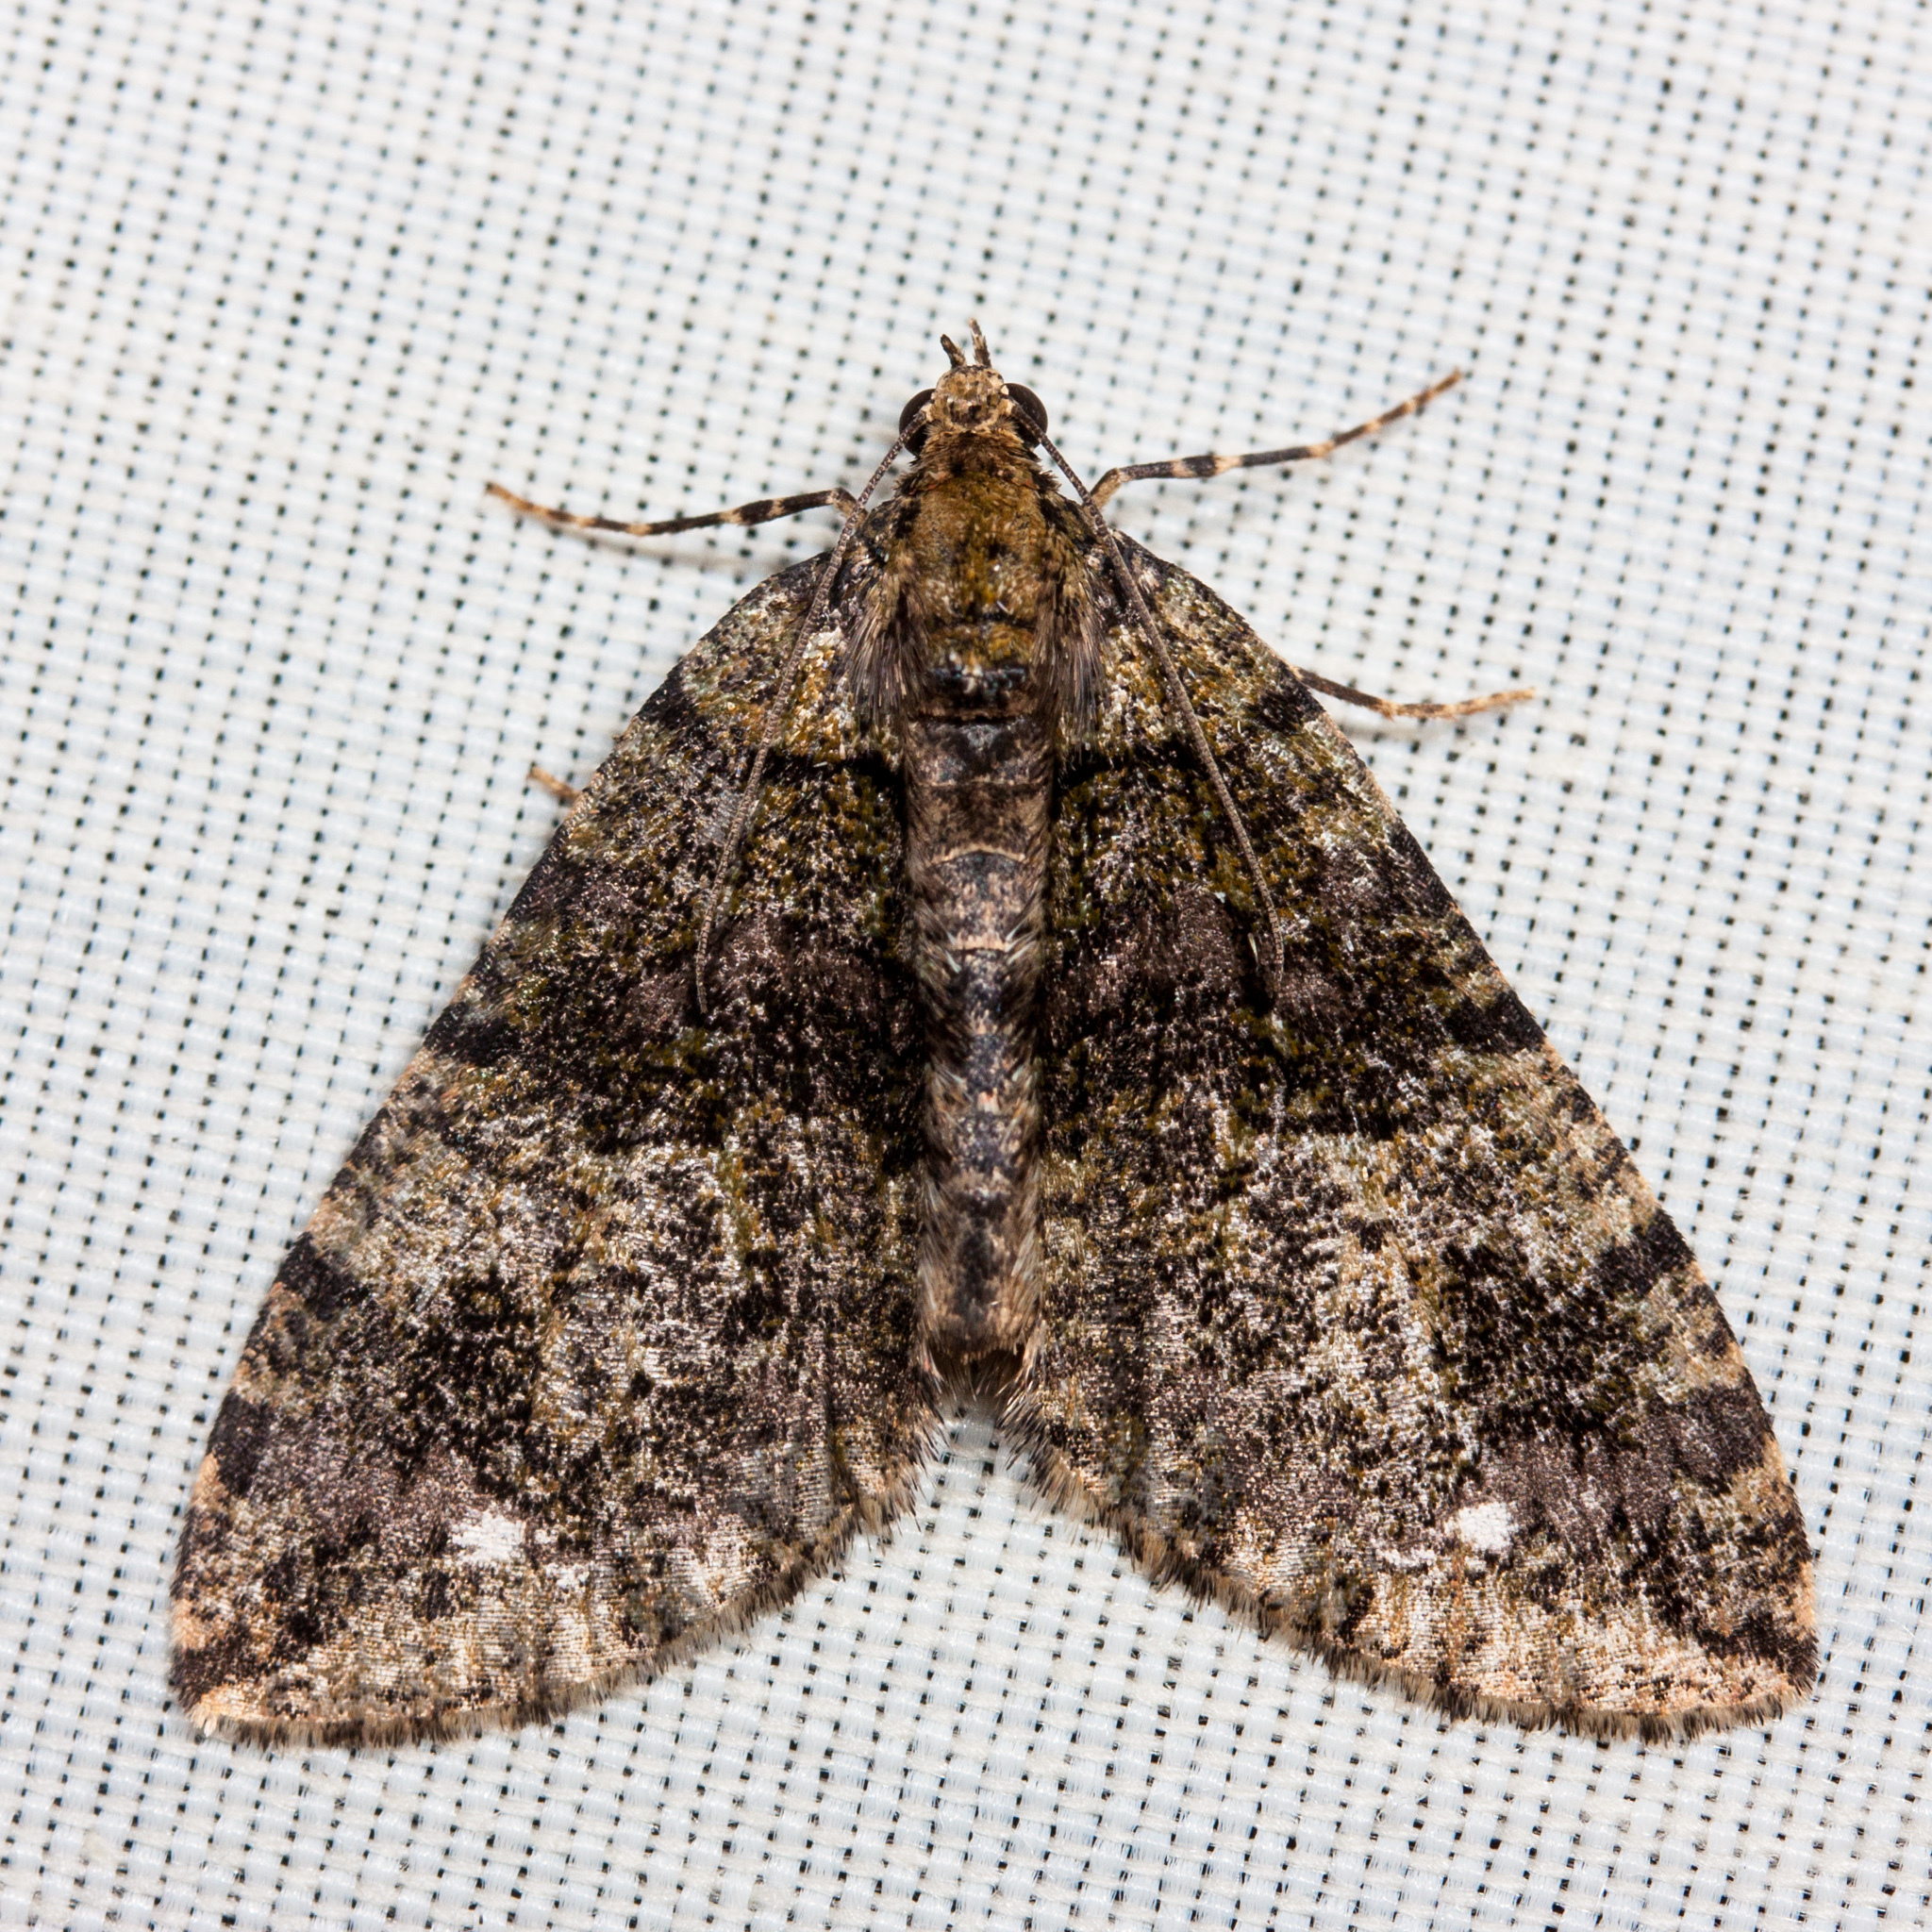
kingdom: Animalia
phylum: Arthropoda
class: Insecta
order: Lepidoptera
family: Geometridae
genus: Hydriomena
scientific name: Hydriomena albifasciata
